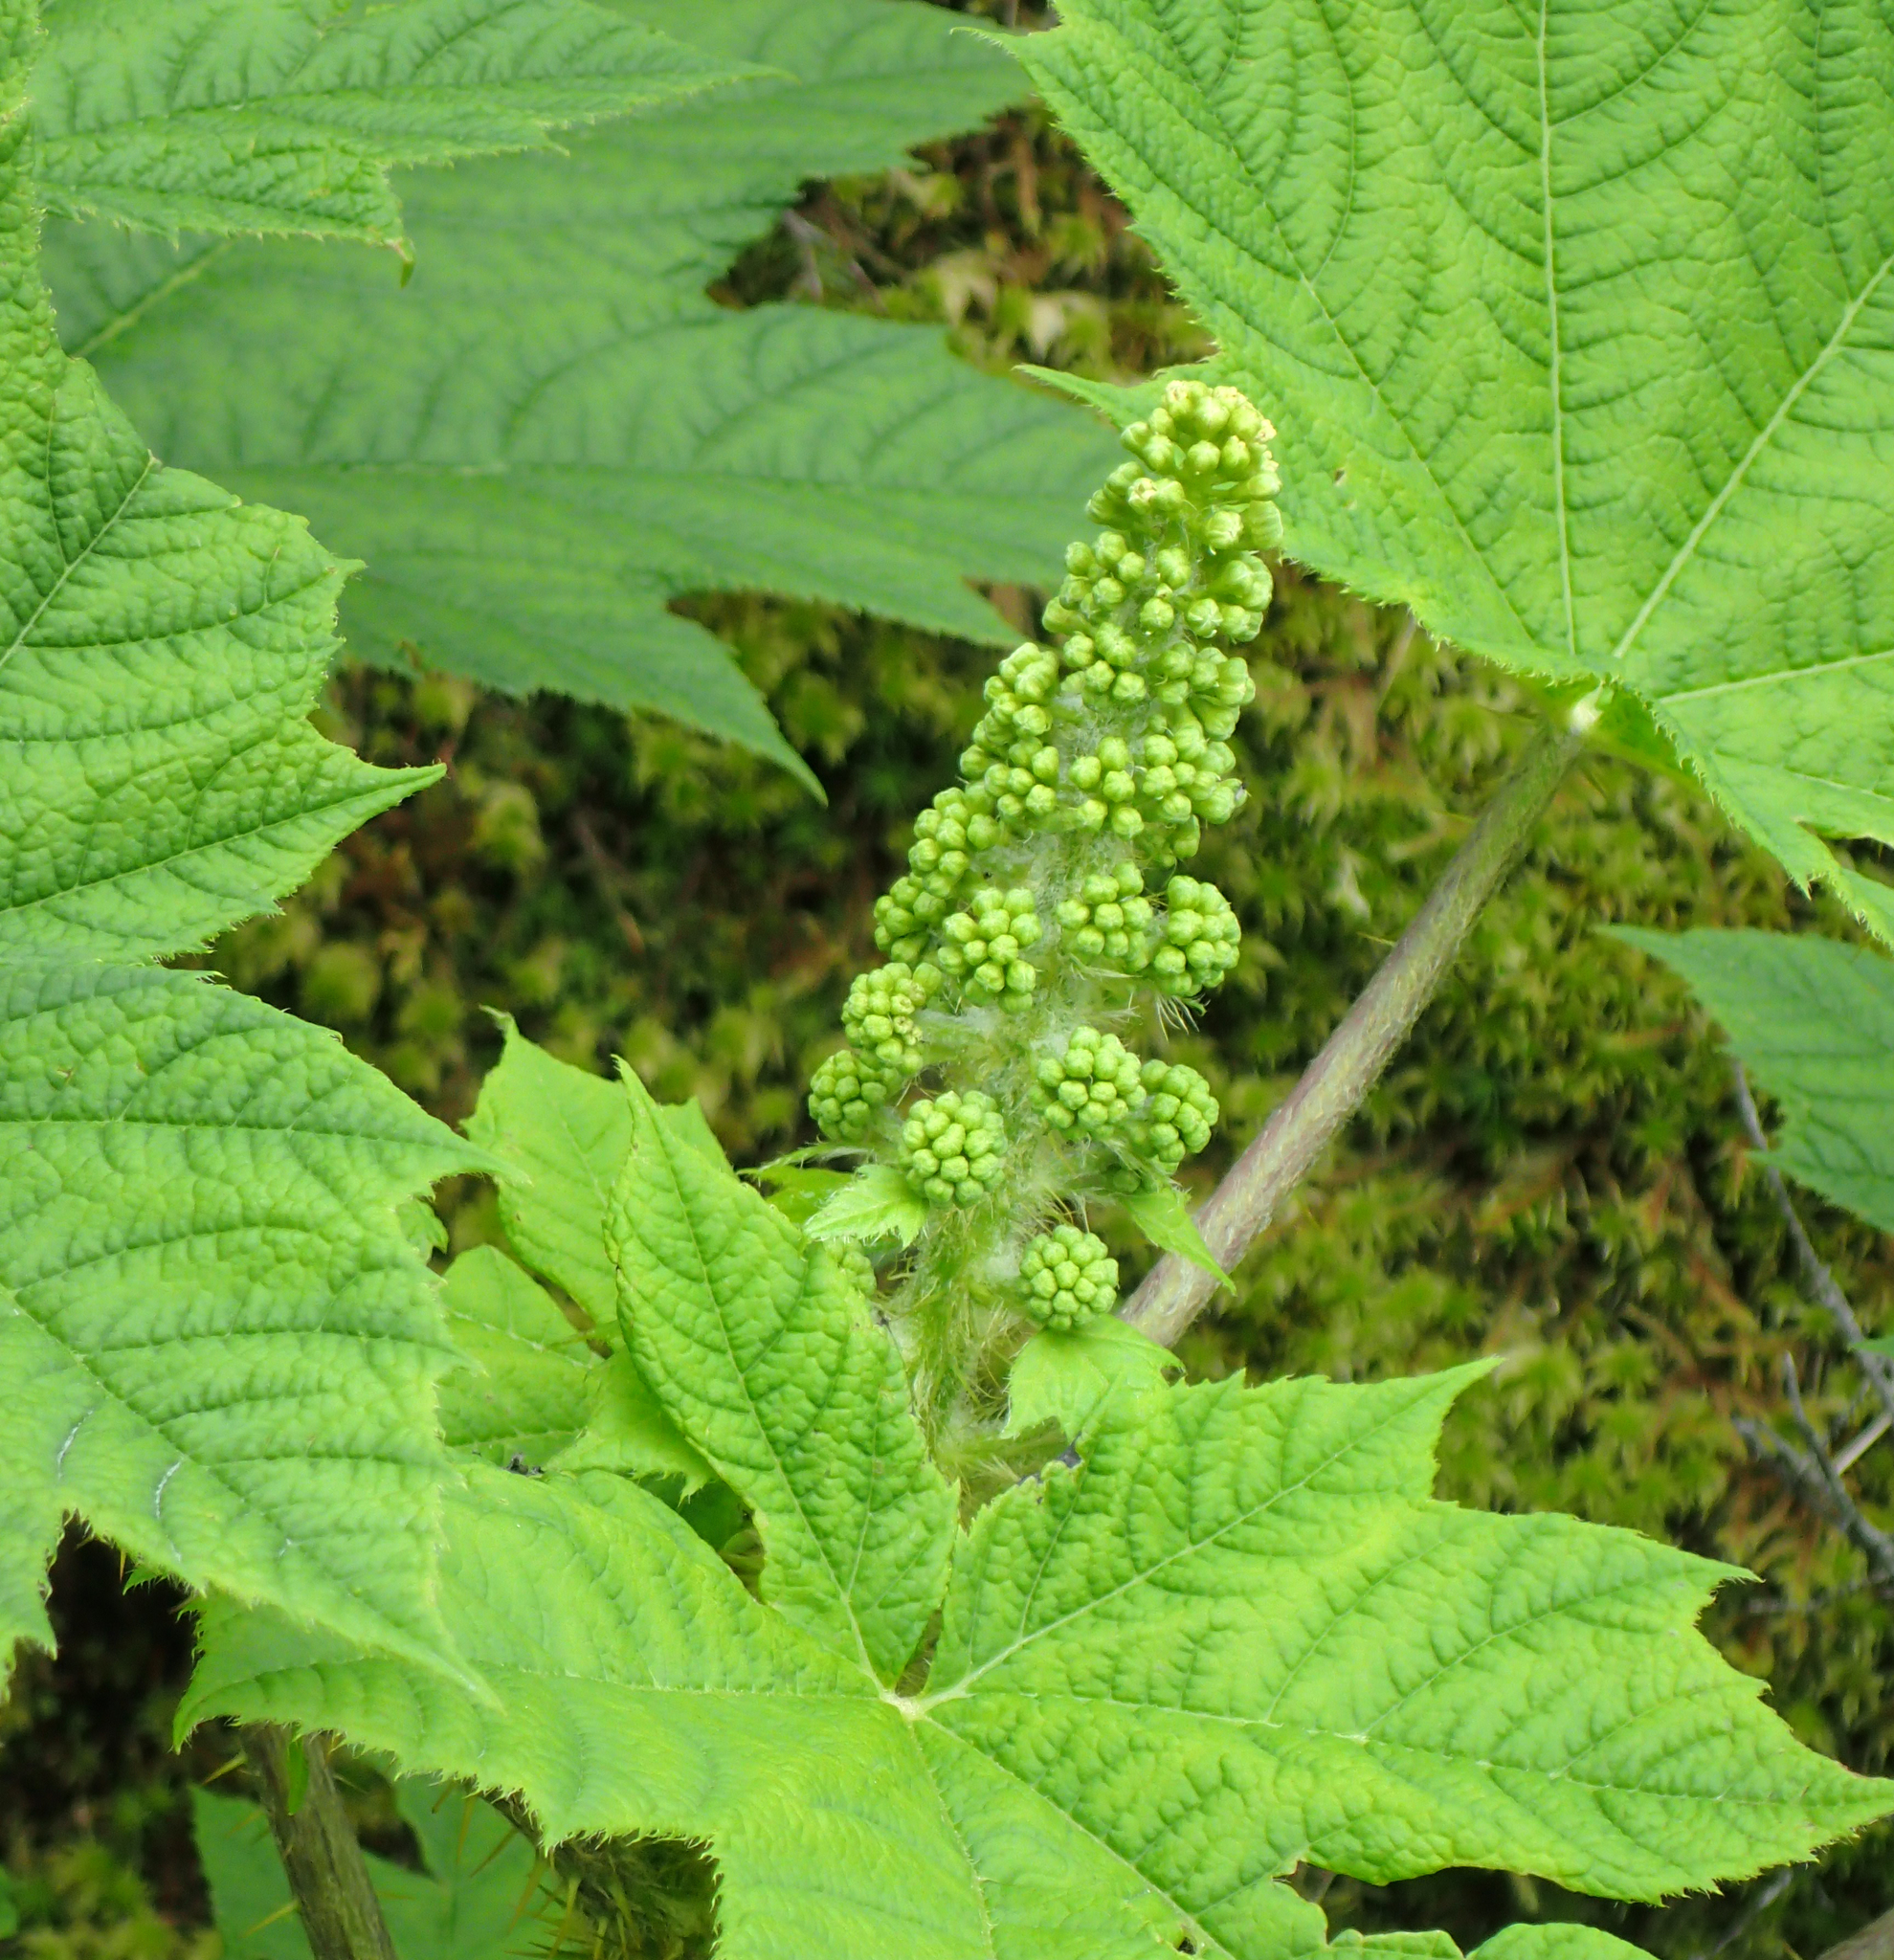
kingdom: Plantae
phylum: Tracheophyta
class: Magnoliopsida
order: Apiales
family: Araliaceae
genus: Oplopanax
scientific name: Oplopanax horridus
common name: Devil's walking-stick
